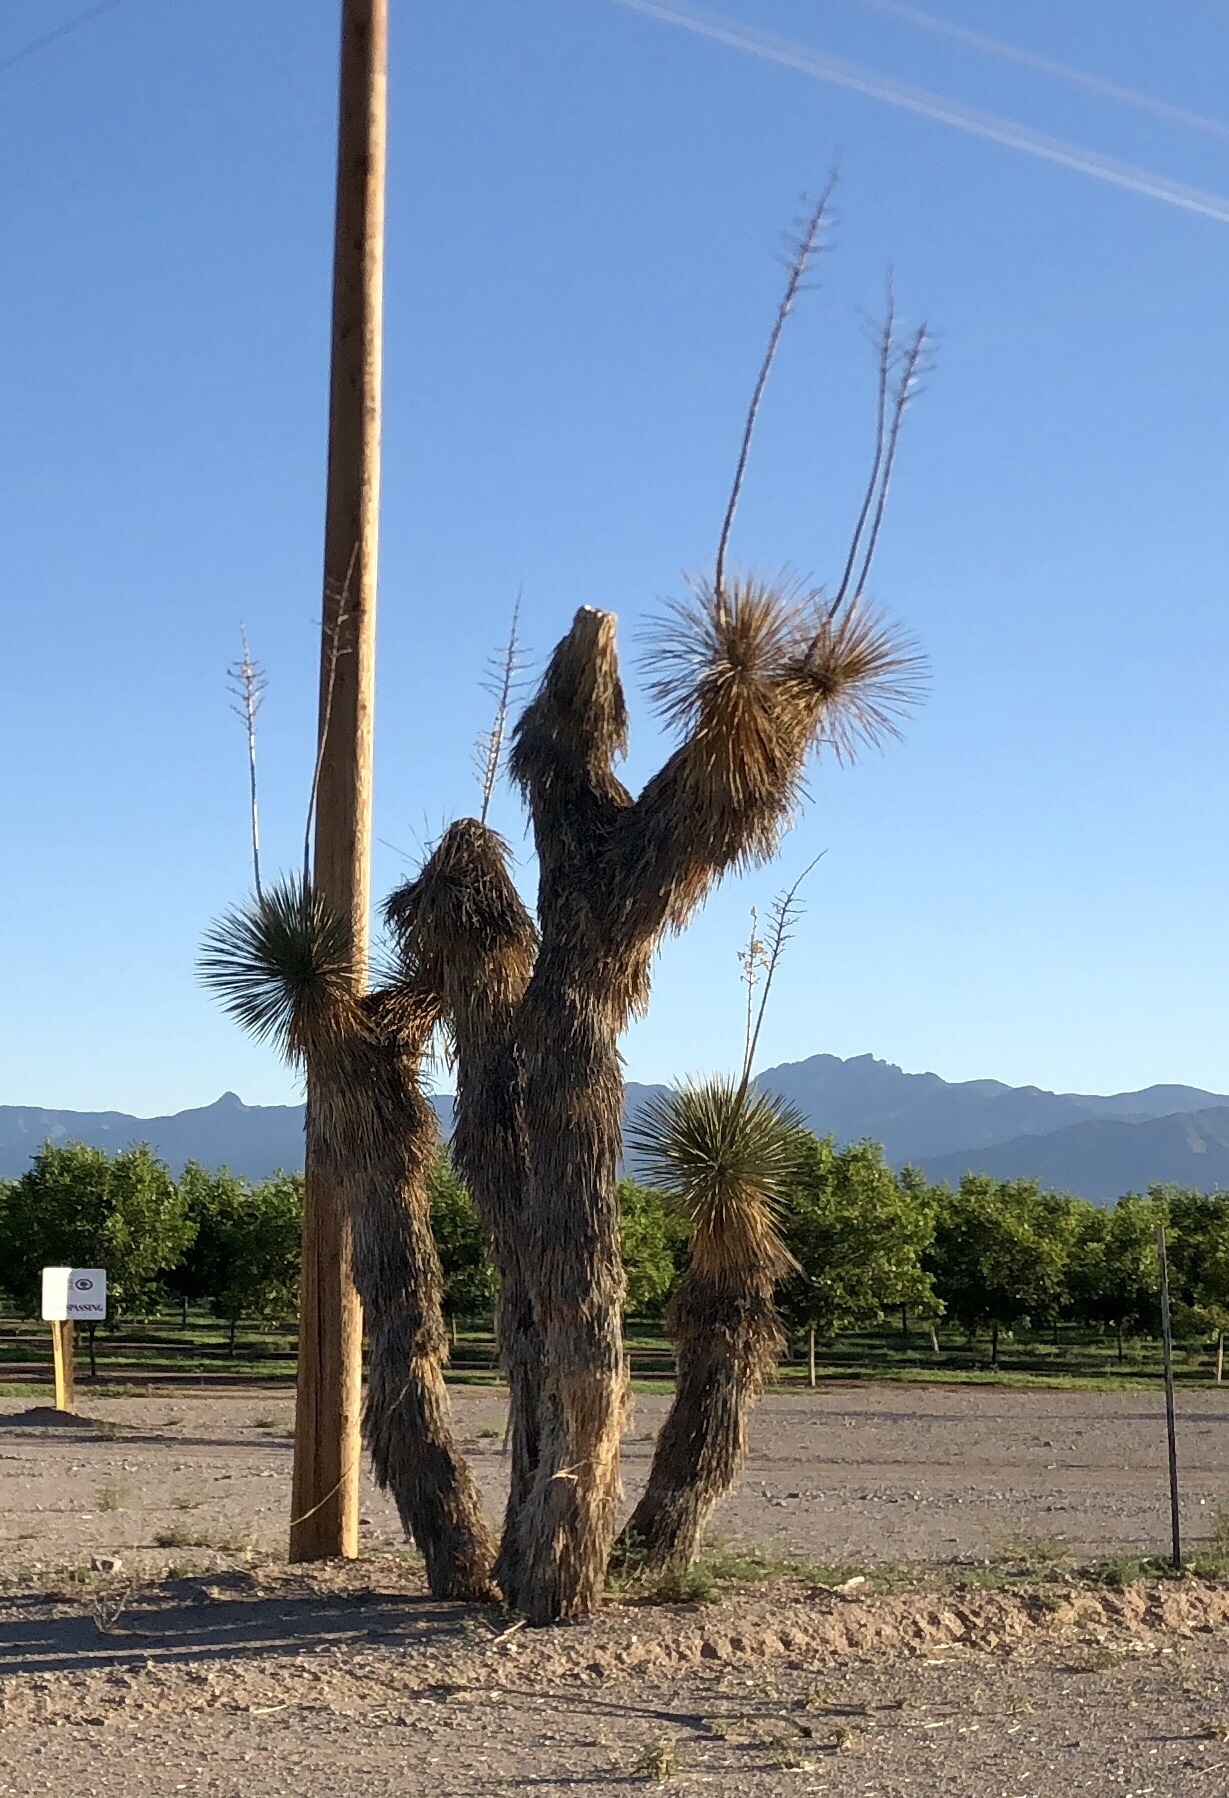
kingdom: Plantae
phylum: Tracheophyta
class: Liliopsida
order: Asparagales
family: Asparagaceae
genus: Yucca
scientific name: Yucca elata
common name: Palmella
